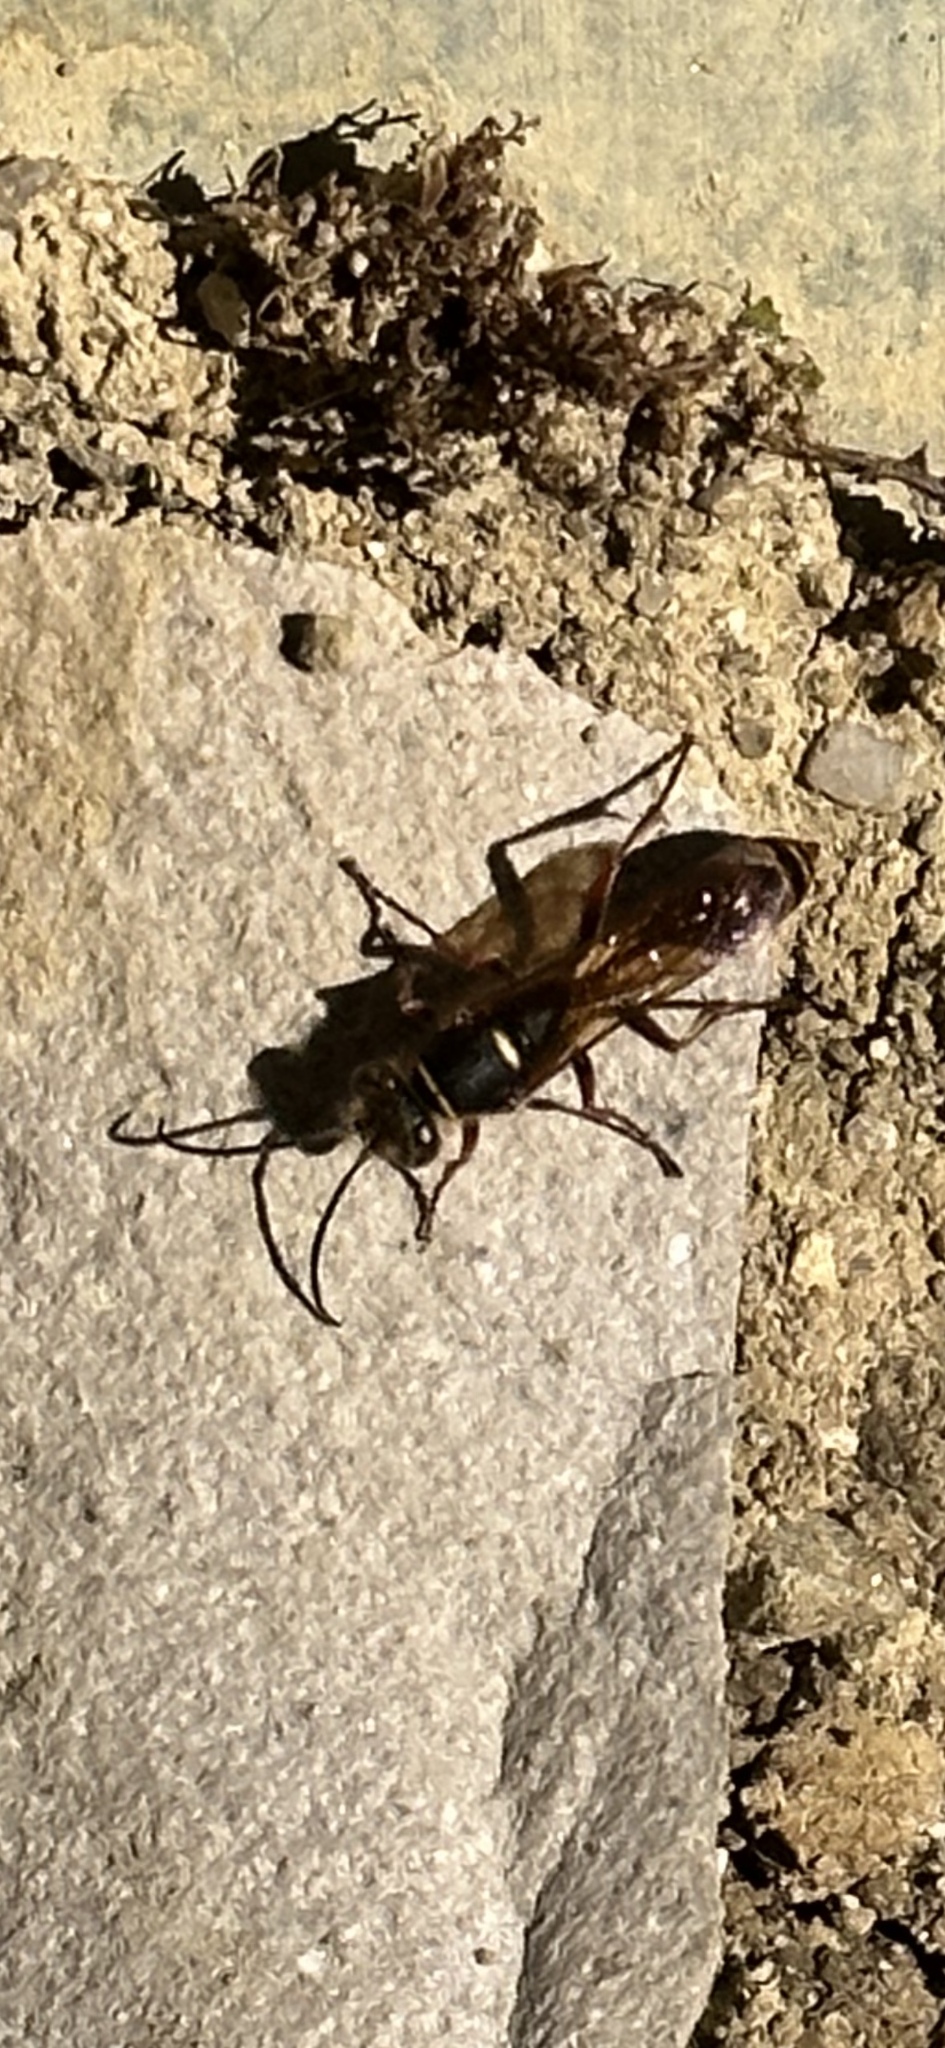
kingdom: Animalia
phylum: Arthropoda
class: Insecta
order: Hymenoptera
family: Sphecidae
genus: Sceliphron
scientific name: Sceliphron curvatum
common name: Pèlopèe
